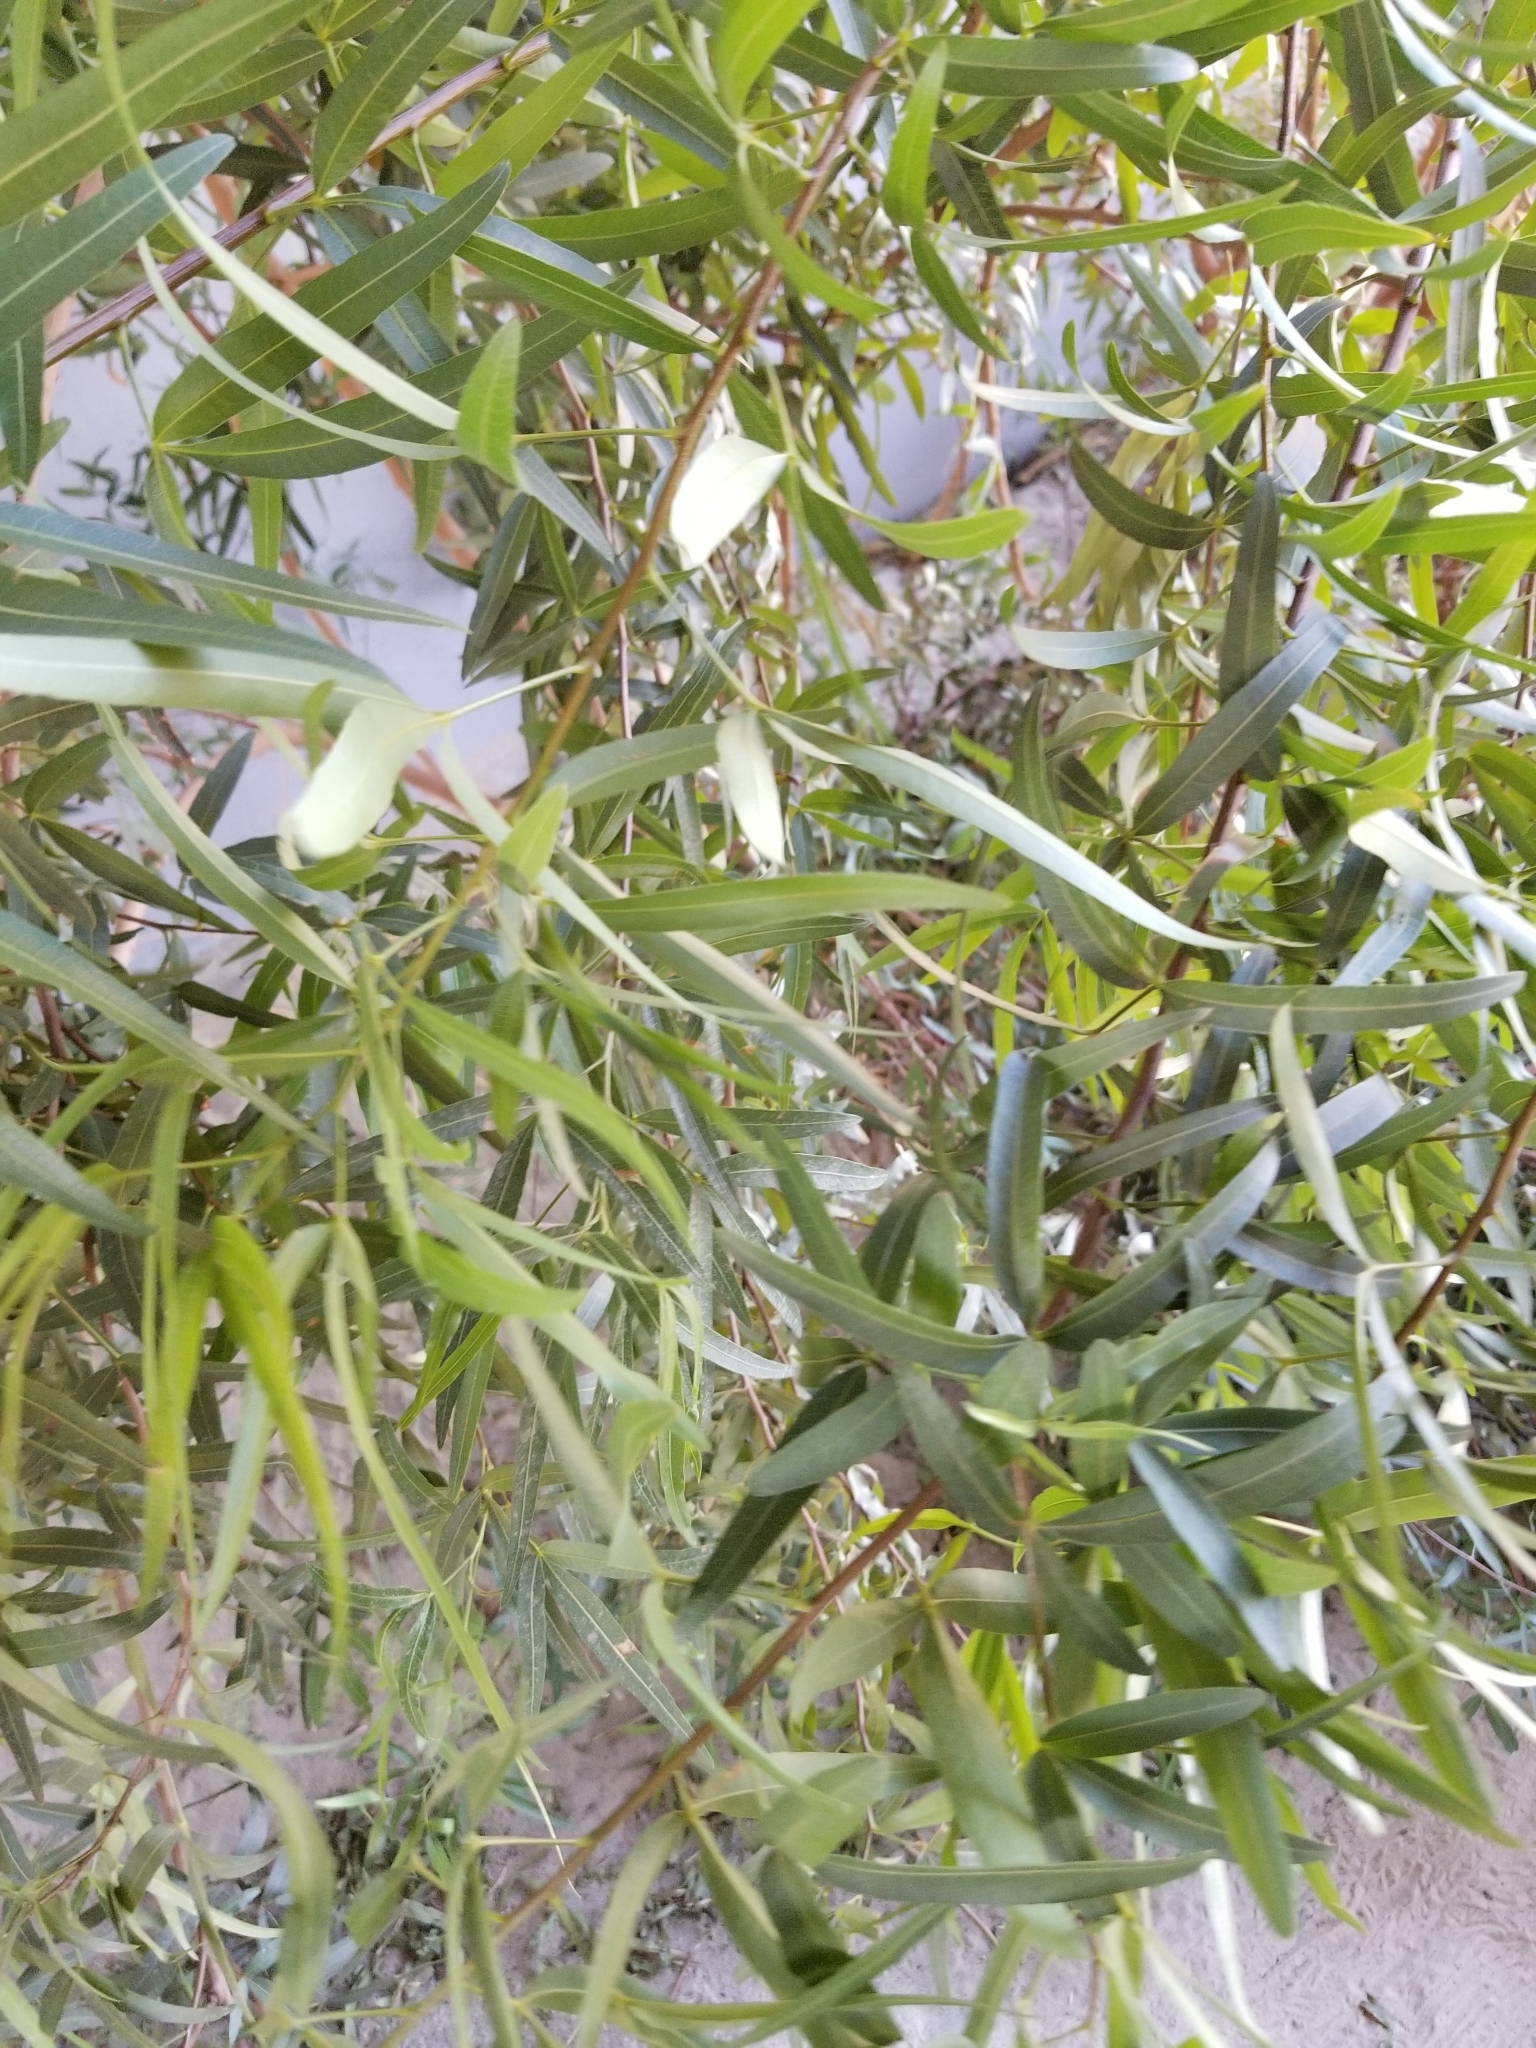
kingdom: Plantae
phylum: Tracheophyta
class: Magnoliopsida
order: Sapindales
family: Anacardiaceae
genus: Searsia
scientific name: Searsia lancea
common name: Cashew
